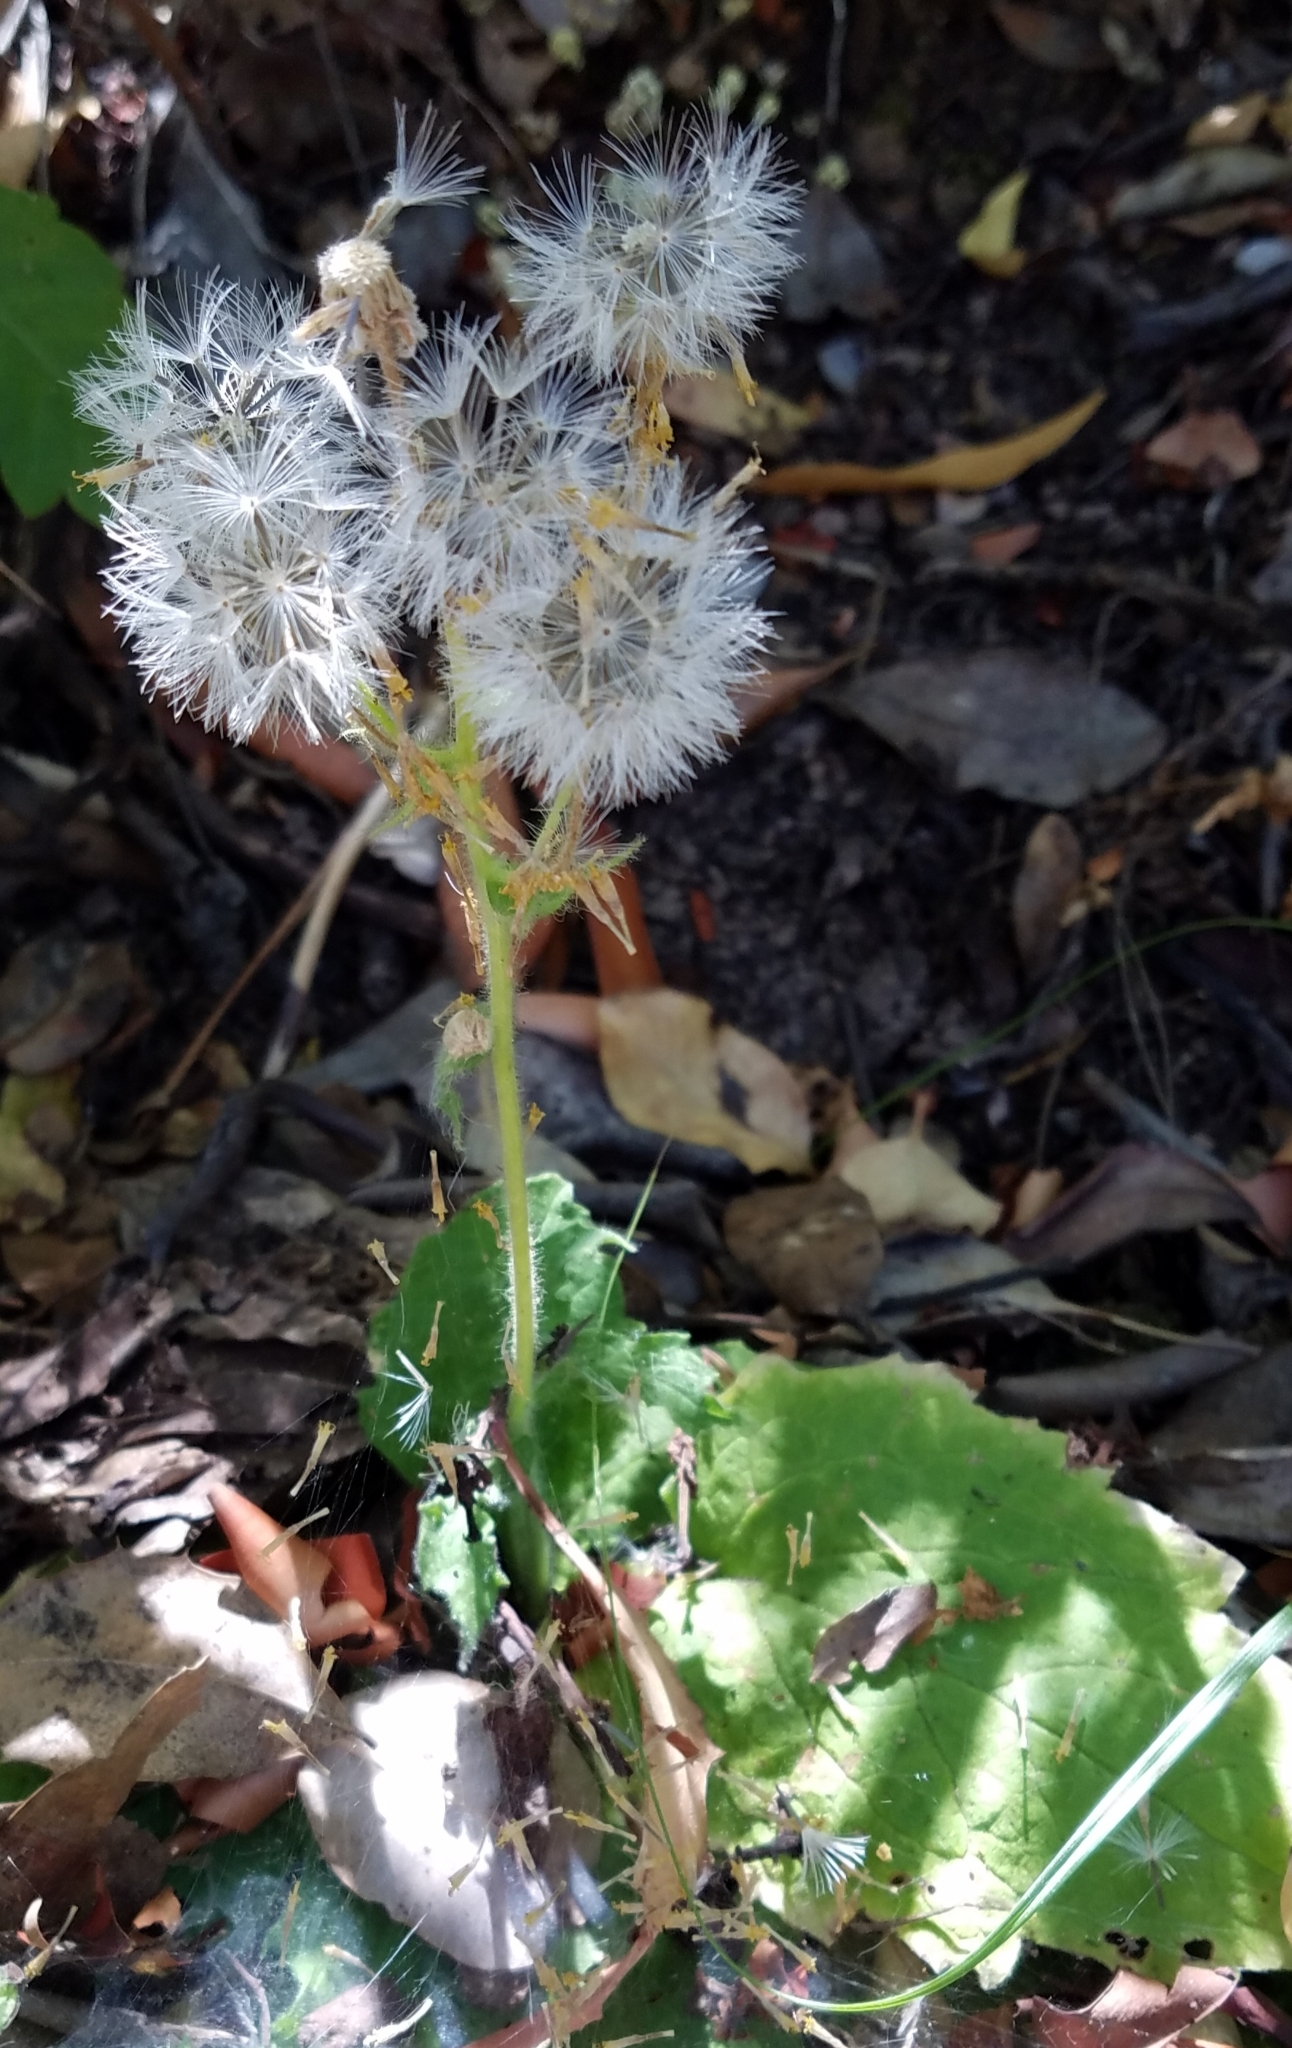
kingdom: Plantae
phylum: Tracheophyta
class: Magnoliopsida
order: Asterales
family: Asteraceae
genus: Arnica
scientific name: Arnica discoidea
